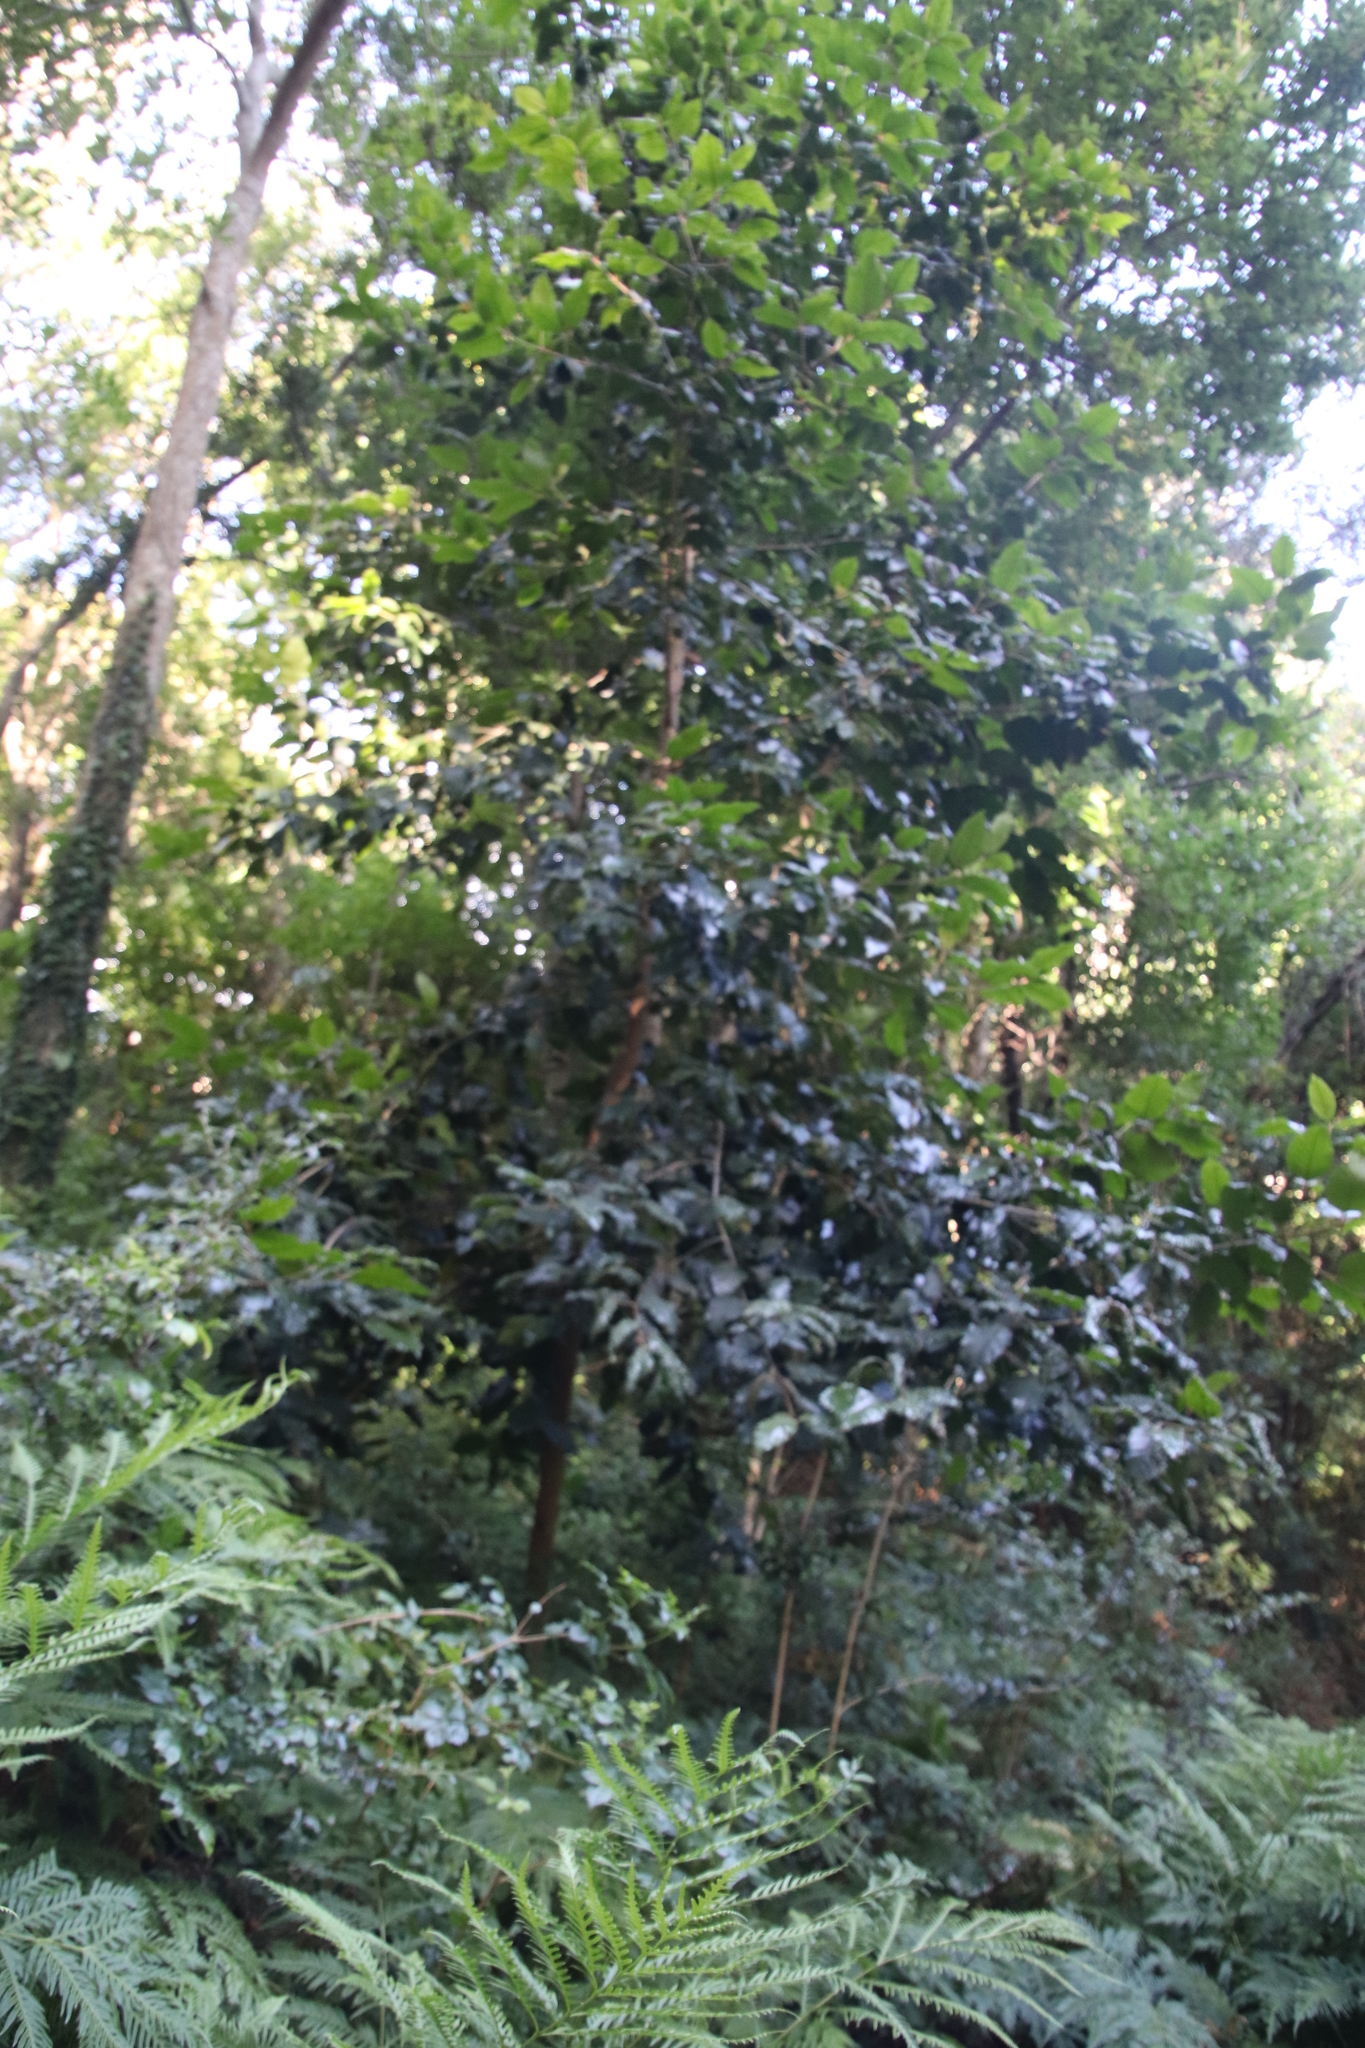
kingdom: Plantae
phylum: Tracheophyta
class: Magnoliopsida
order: Cornales
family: Curtisiaceae
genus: Curtisia
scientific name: Curtisia dentata
